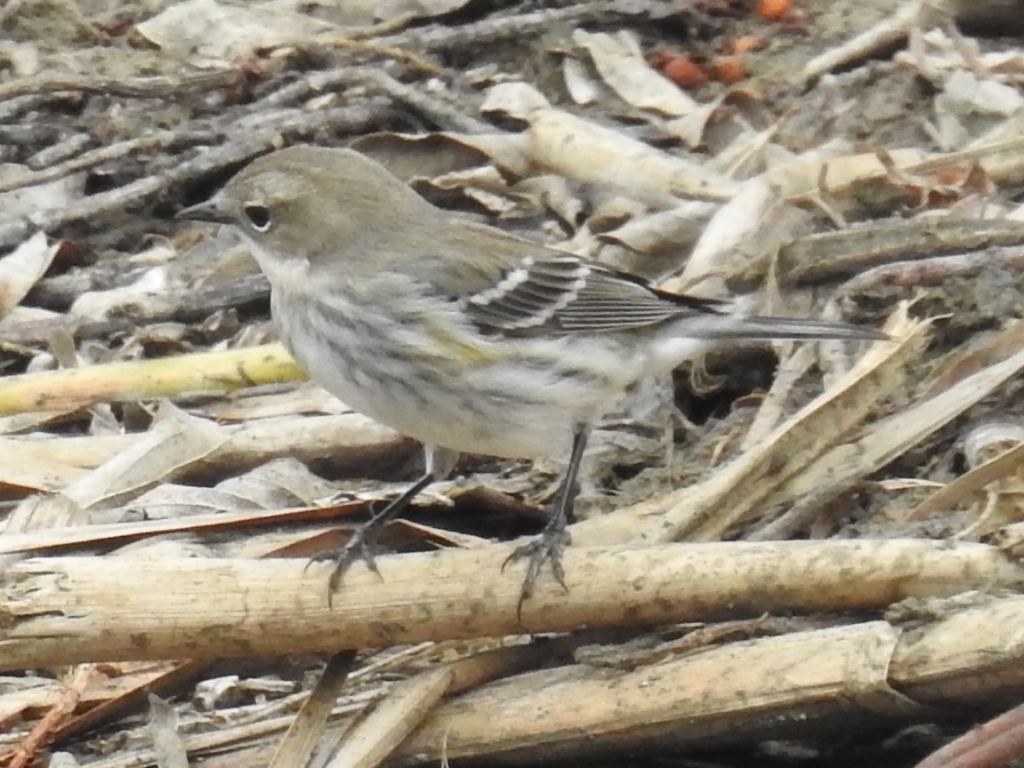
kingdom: Animalia
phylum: Chordata
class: Aves
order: Passeriformes
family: Parulidae
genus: Setophaga
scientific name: Setophaga coronata
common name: Myrtle warbler
